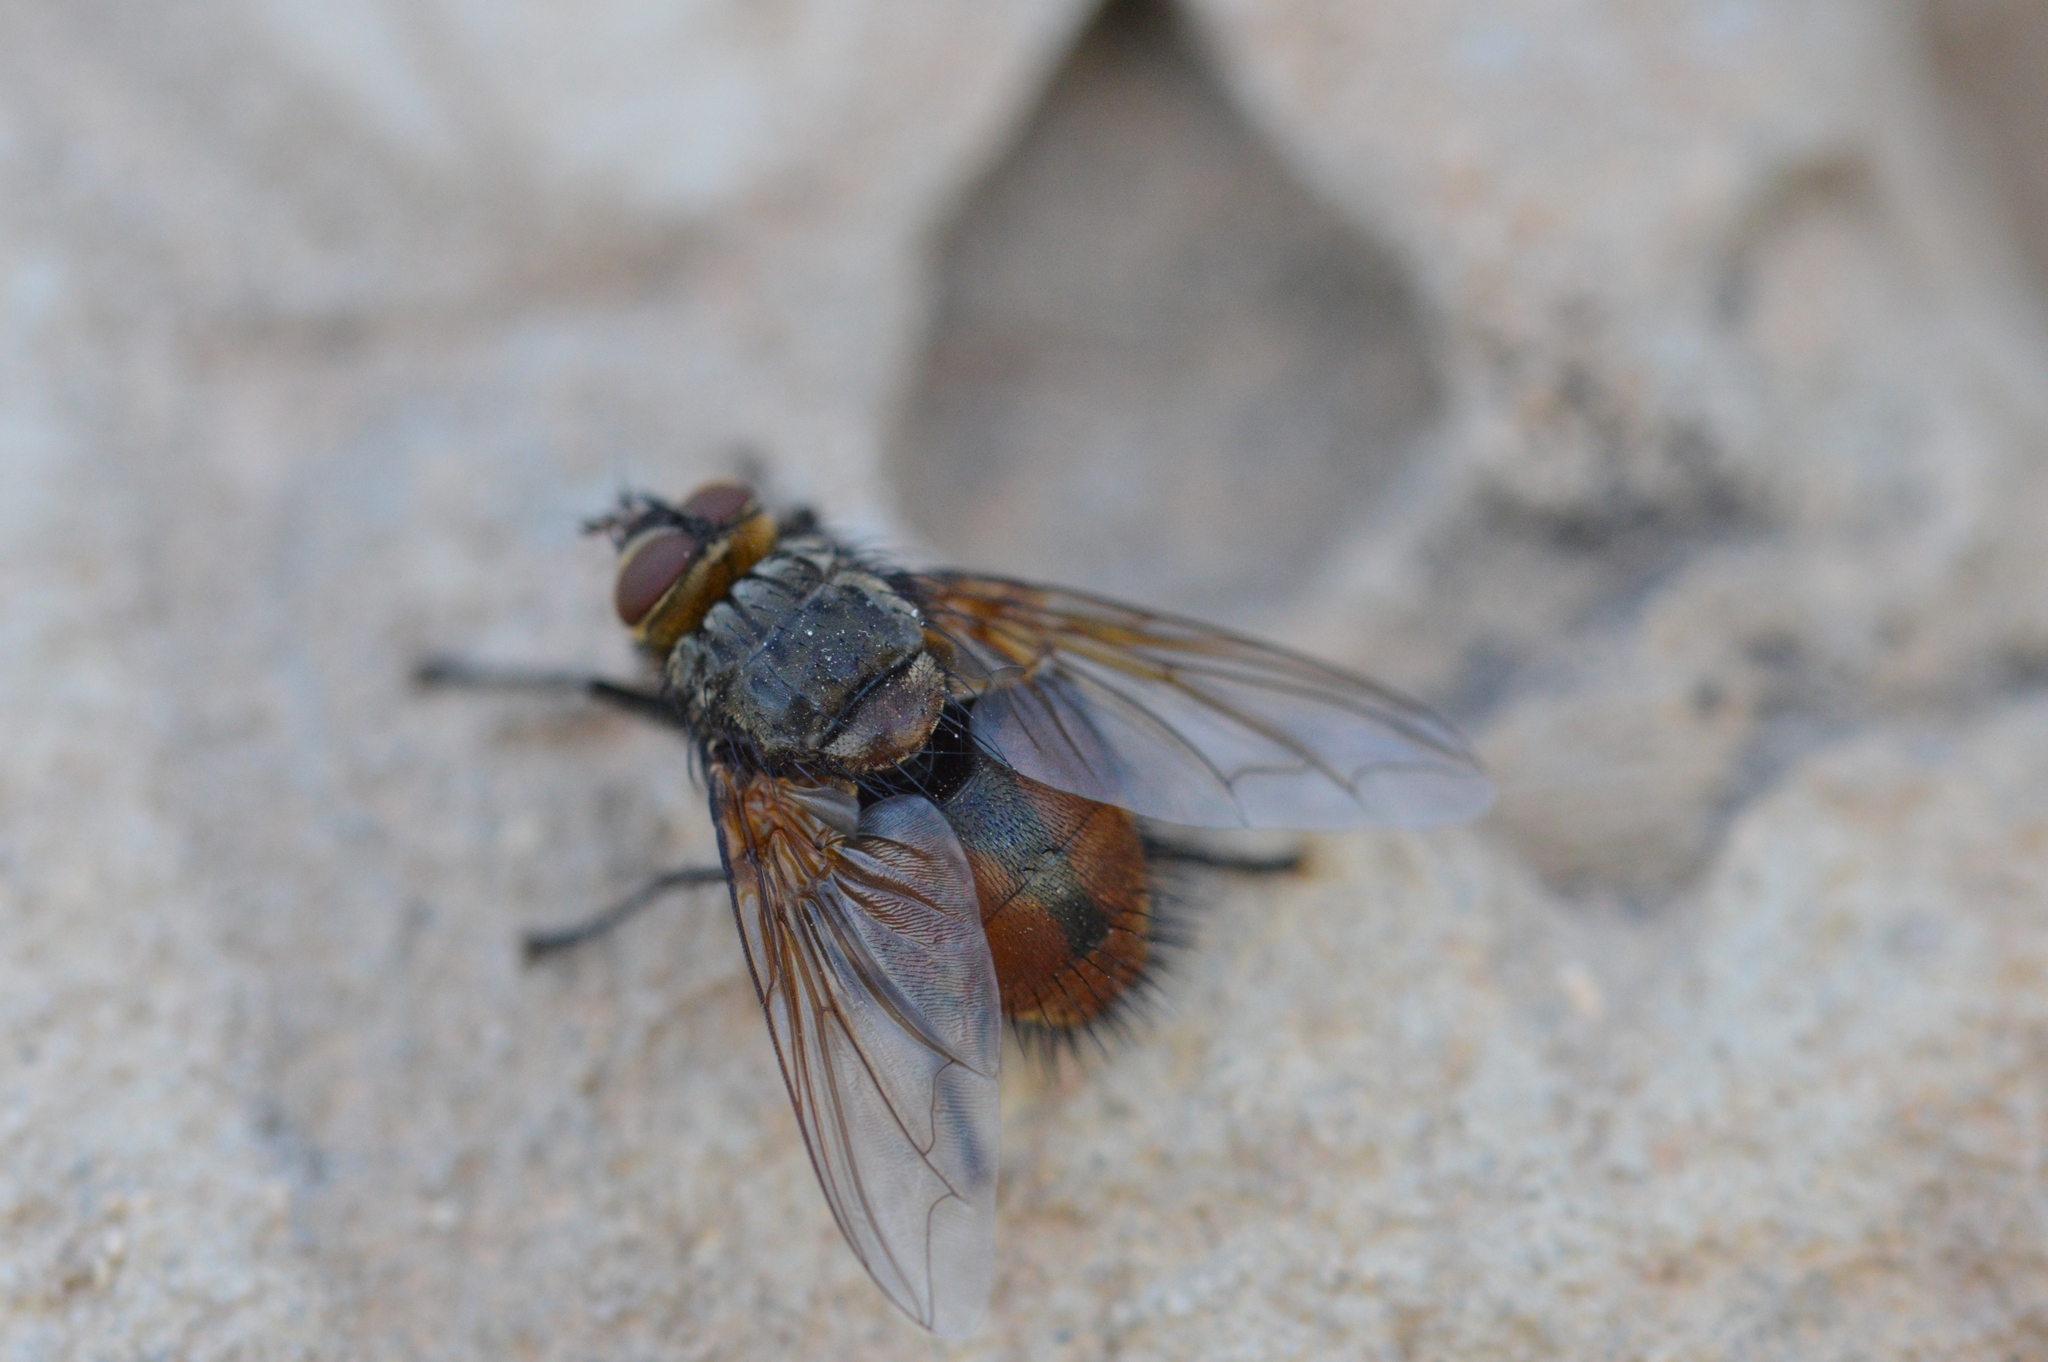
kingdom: Animalia
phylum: Arthropoda
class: Insecta
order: Diptera
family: Tachinidae
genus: Nemoraea
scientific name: Nemoraea pellucida
